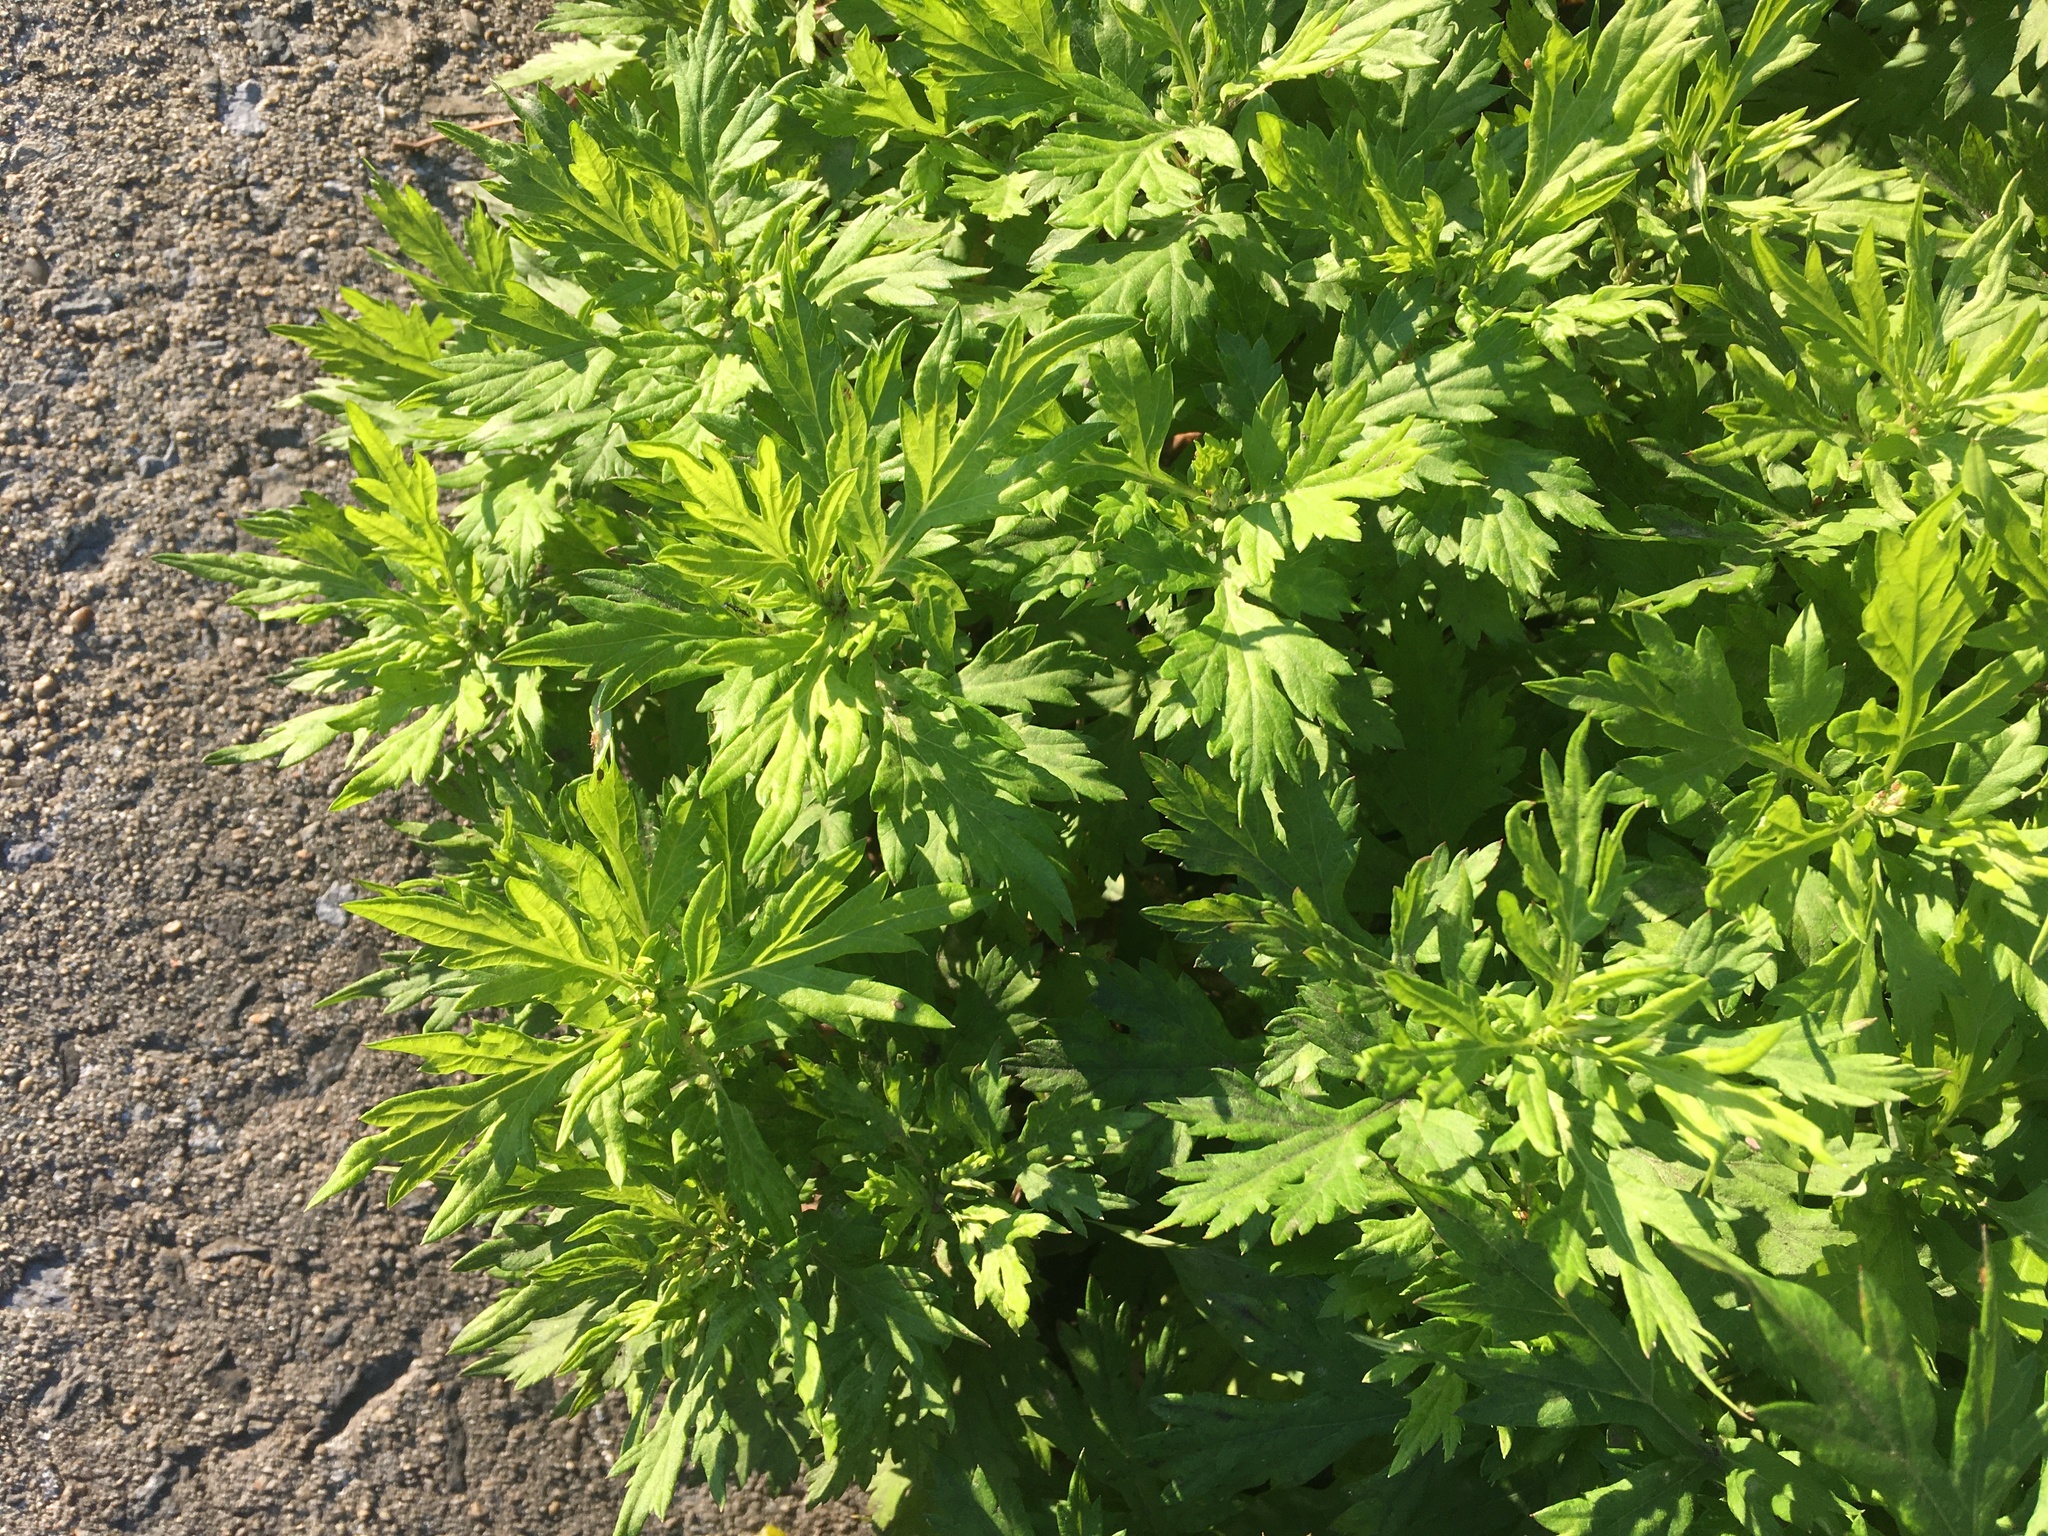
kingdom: Plantae
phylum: Tracheophyta
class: Magnoliopsida
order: Asterales
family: Asteraceae
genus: Artemisia
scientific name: Artemisia vulgaris
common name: Mugwort
